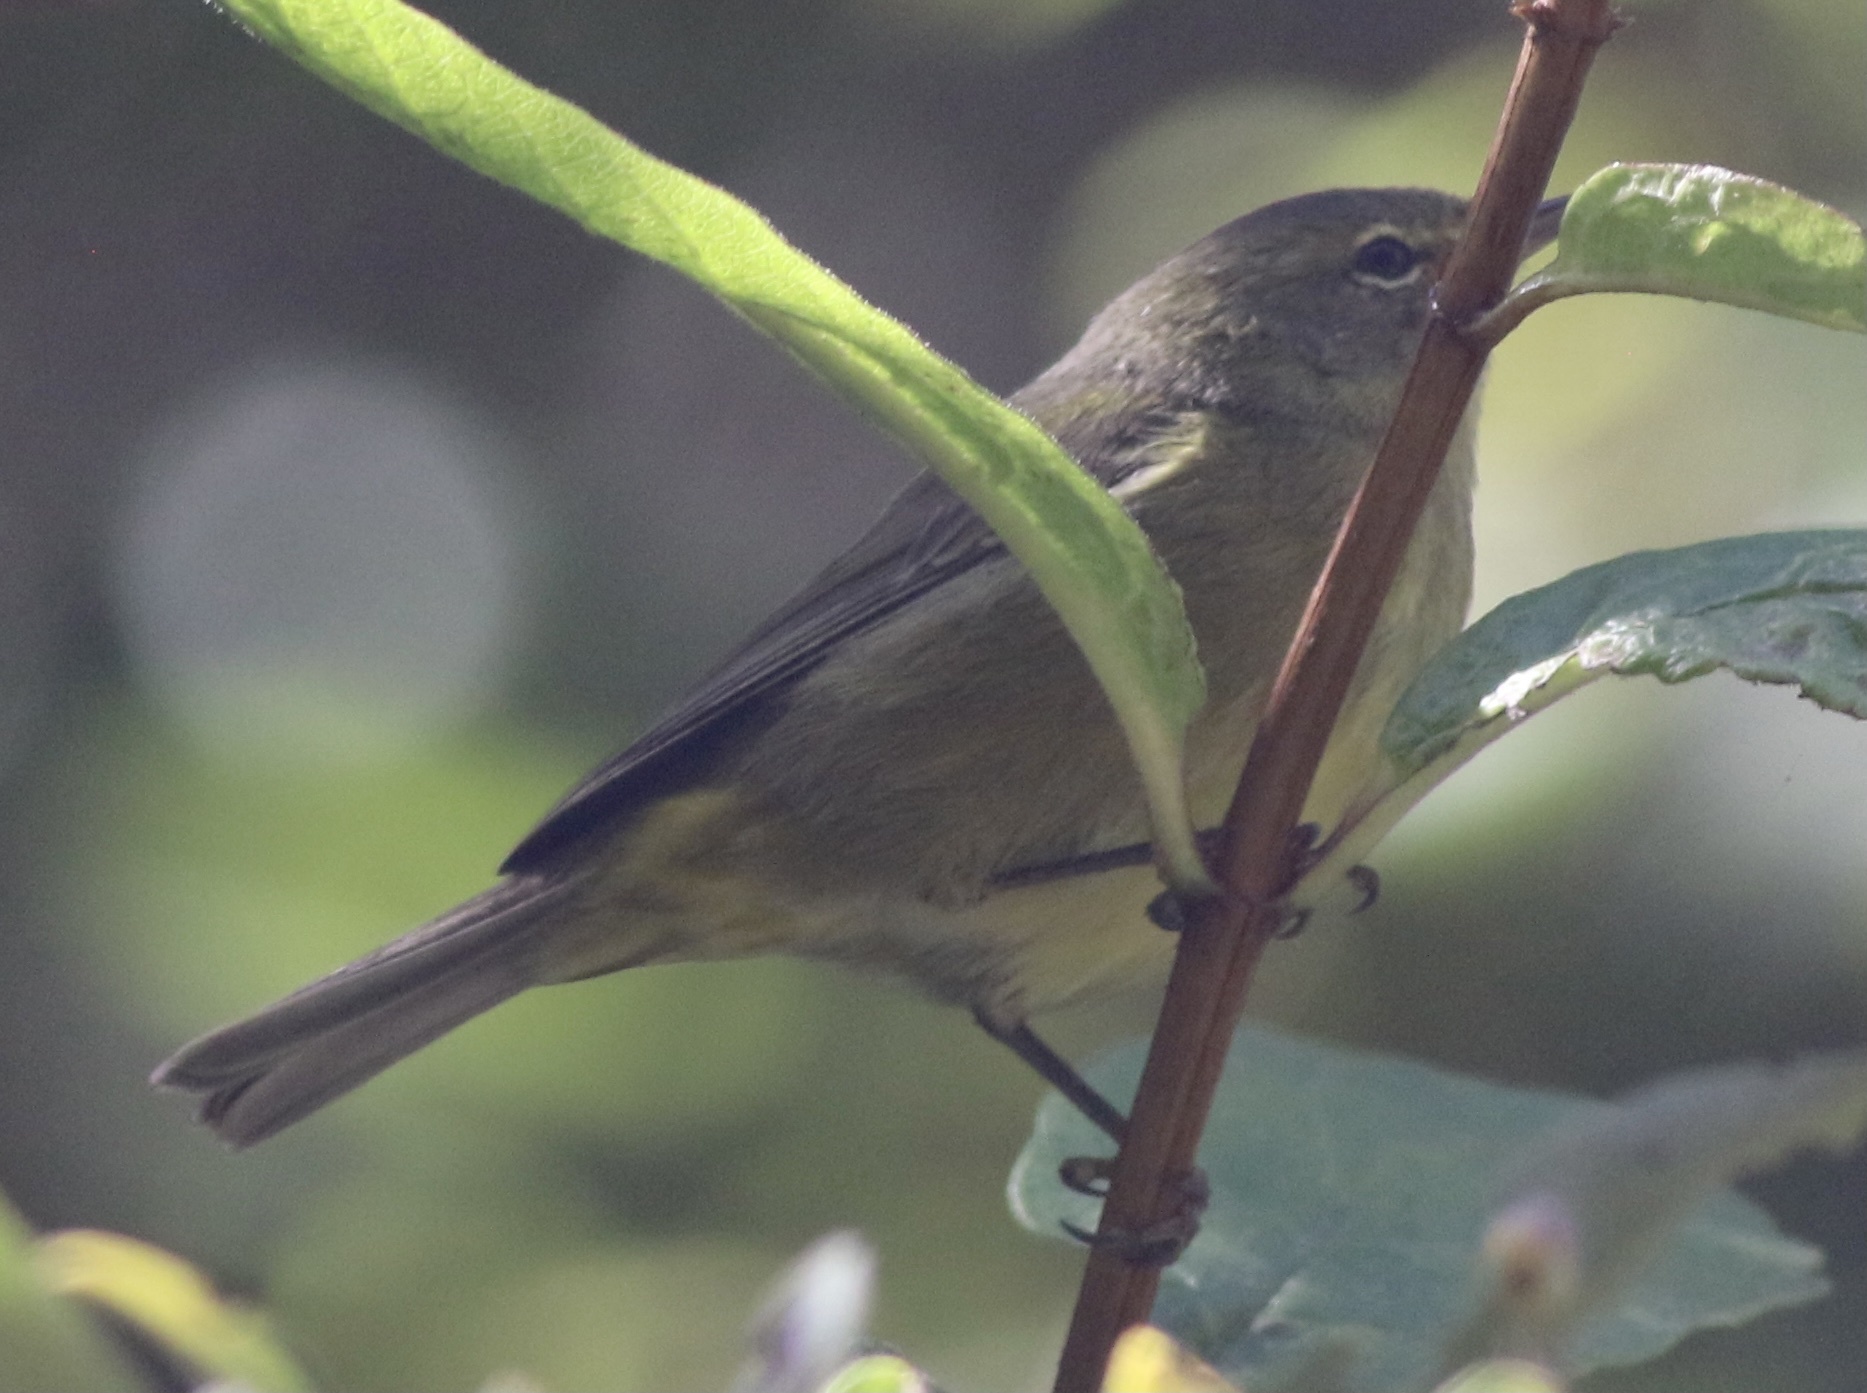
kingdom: Animalia
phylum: Chordata
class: Aves
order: Passeriformes
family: Parulidae
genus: Leiothlypis
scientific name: Leiothlypis celata
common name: Orange-crowned warbler
